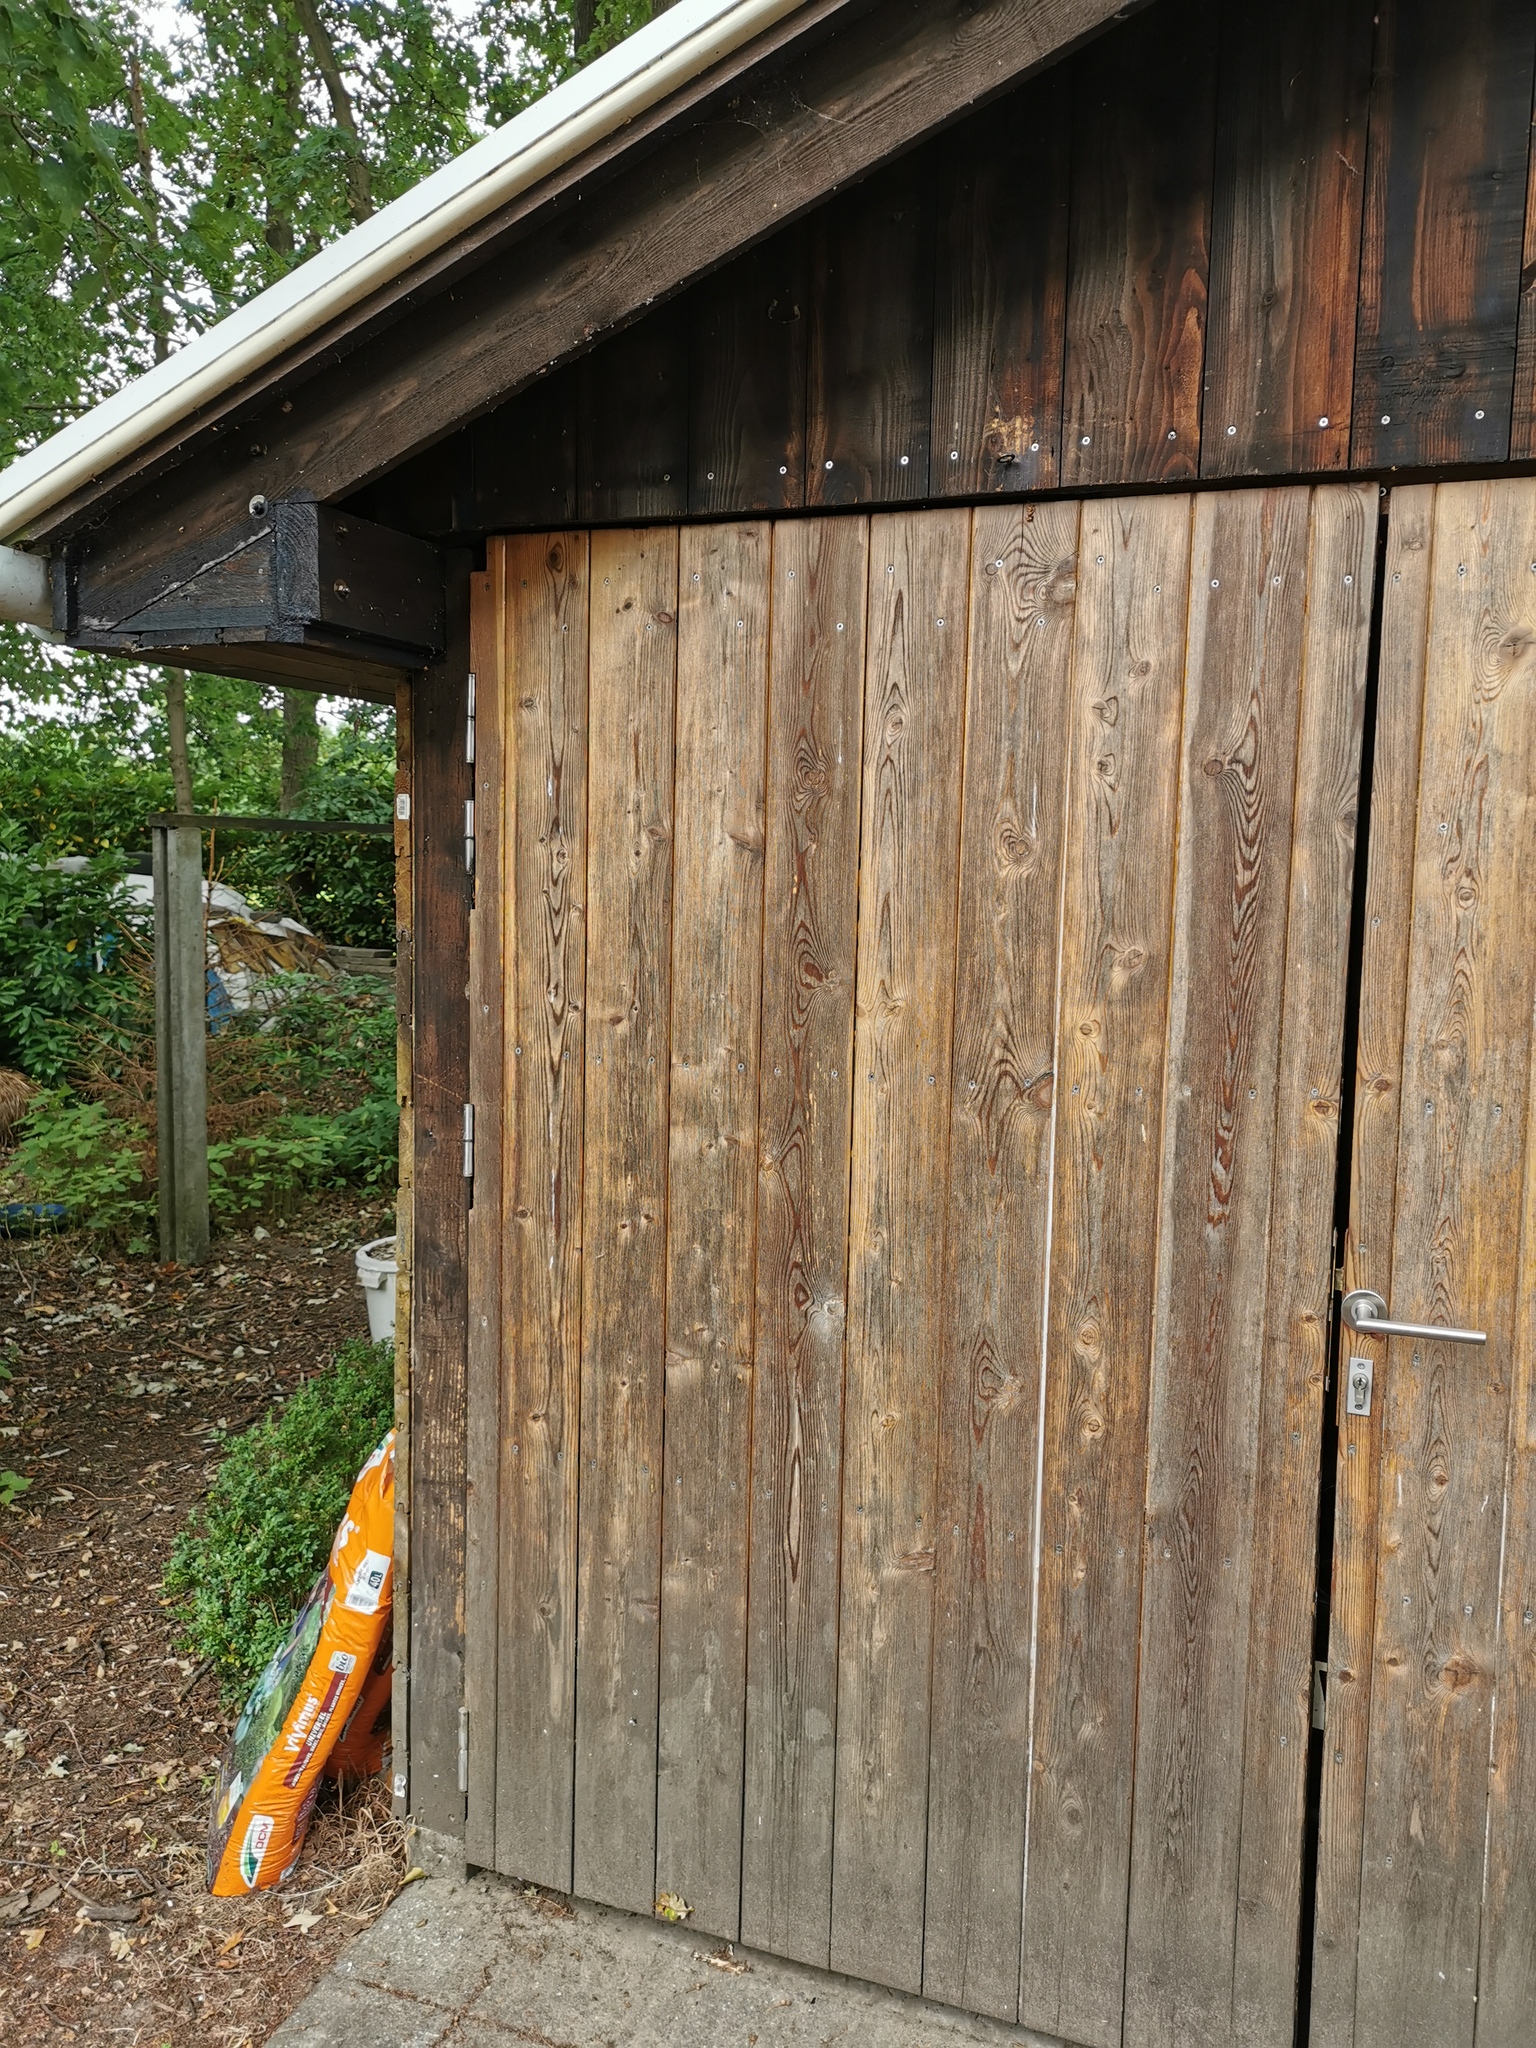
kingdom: Animalia
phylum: Arthropoda
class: Insecta
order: Hymenoptera
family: Vespidae
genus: Vespa
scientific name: Vespa crabro
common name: Hornet
